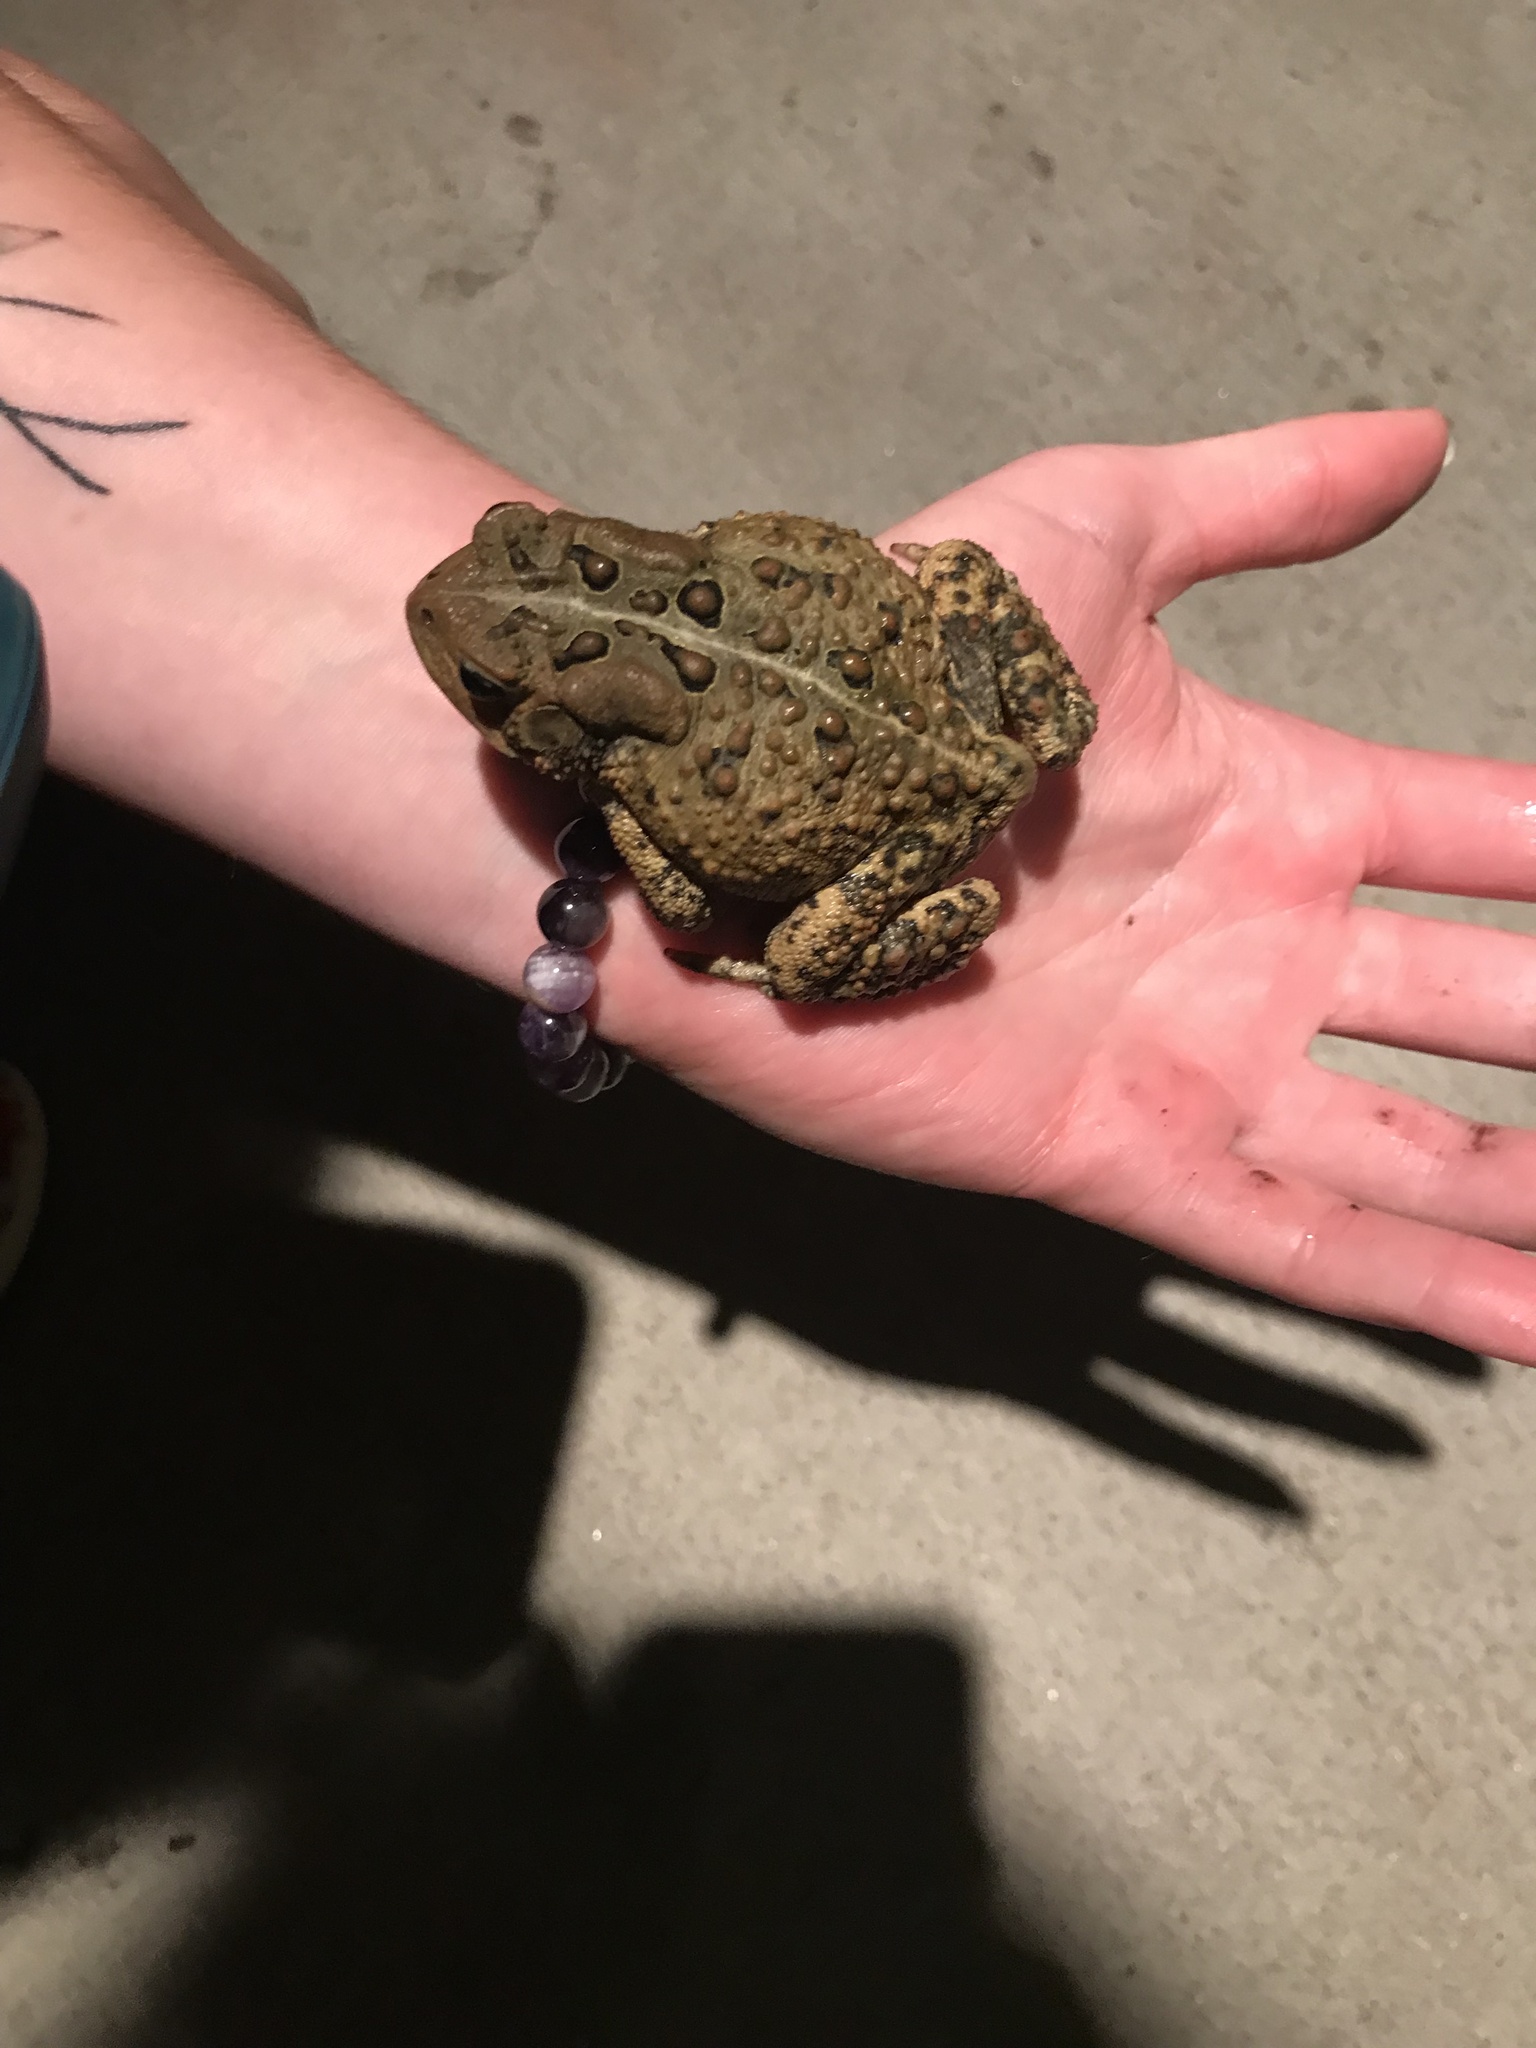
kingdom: Animalia
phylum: Chordata
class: Amphibia
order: Anura
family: Bufonidae
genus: Anaxyrus
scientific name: Anaxyrus americanus
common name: American toad
